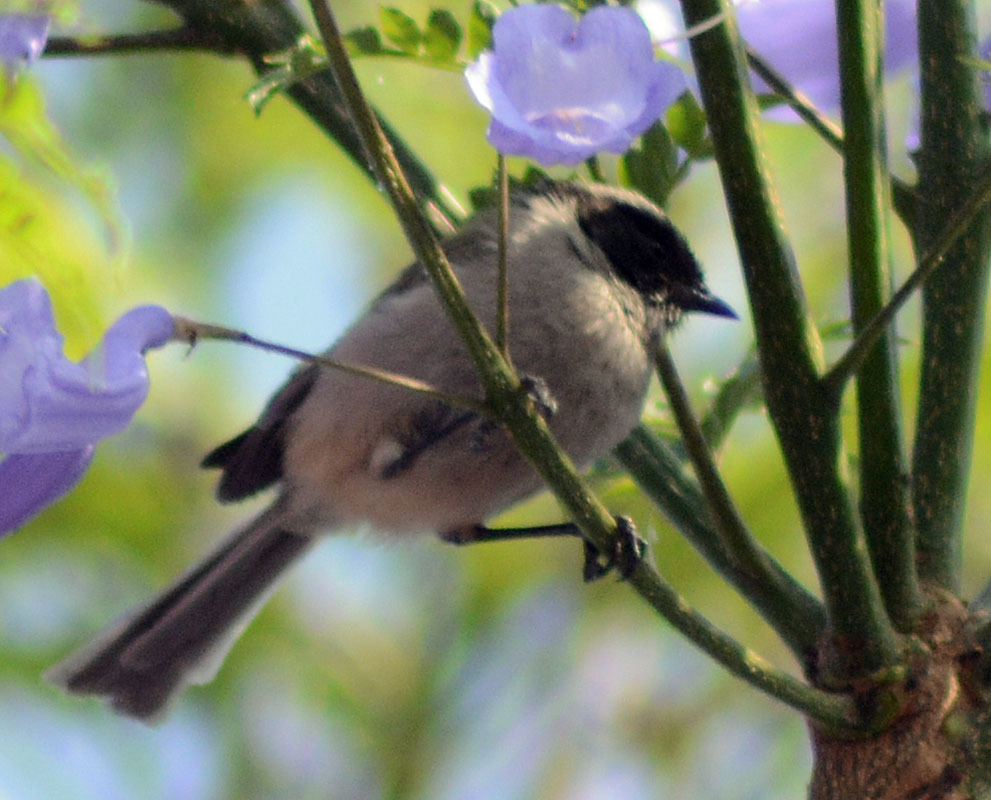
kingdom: Animalia
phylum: Chordata
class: Aves
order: Passeriformes
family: Aegithalidae
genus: Psaltriparus
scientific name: Psaltriparus minimus
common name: American bushtit
